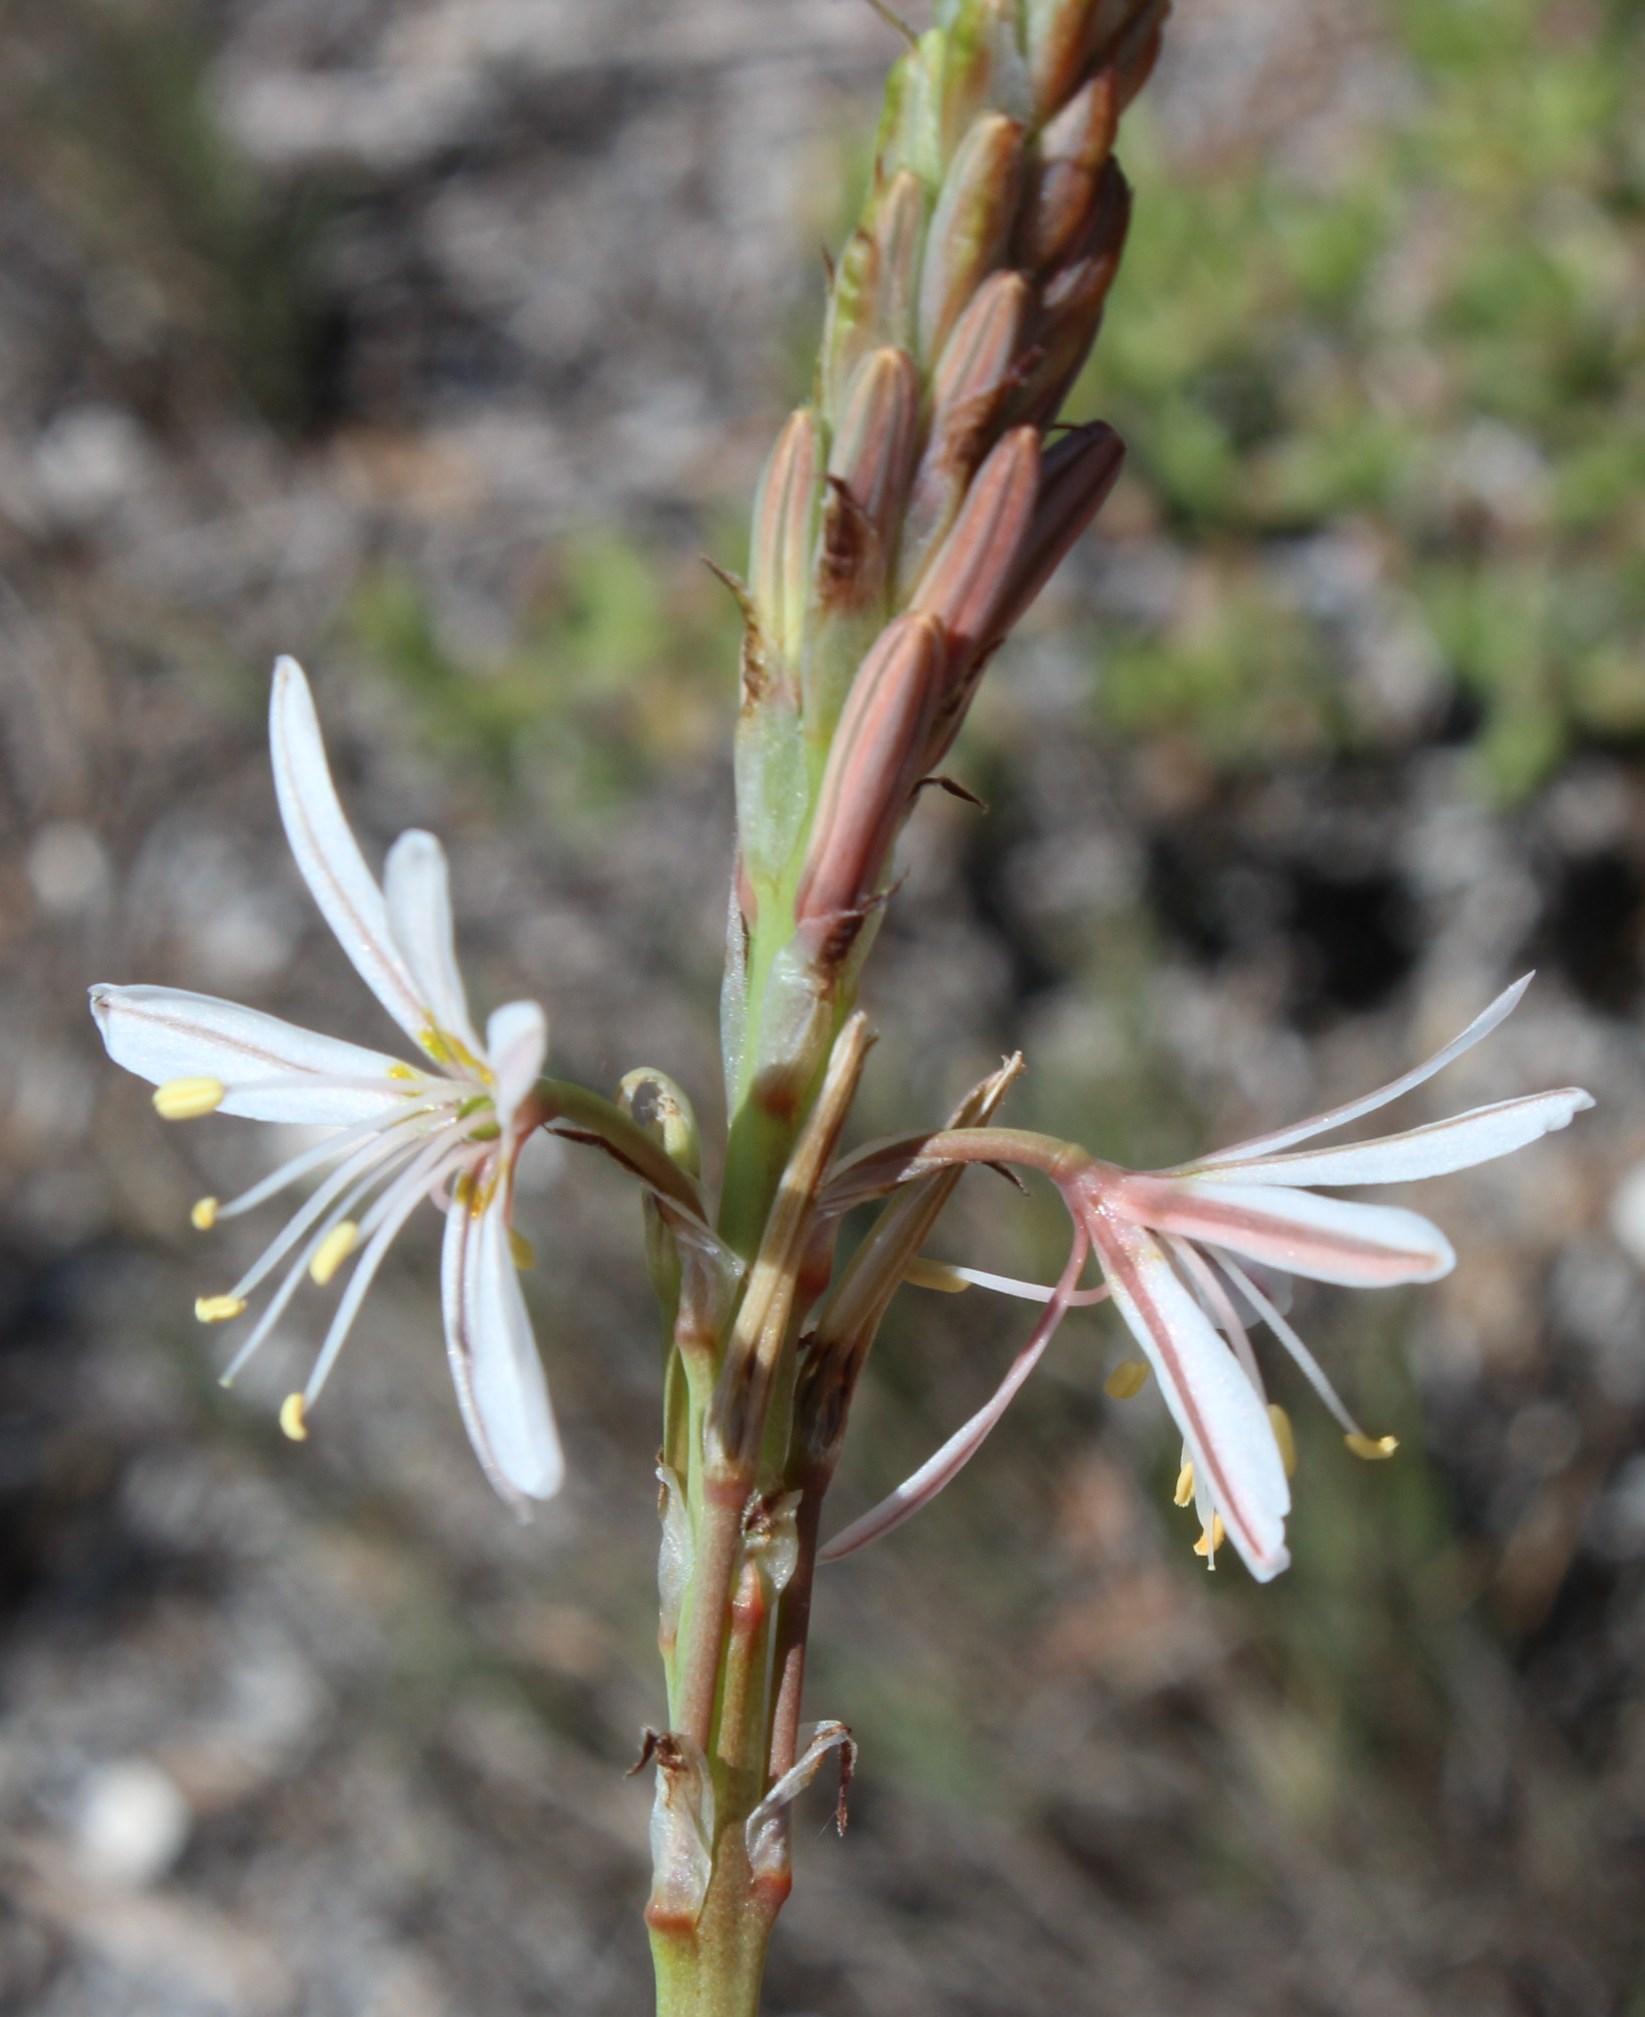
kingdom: Plantae
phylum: Tracheophyta
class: Liliopsida
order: Asparagales
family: Asphodelaceae
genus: Trachyandra
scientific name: Trachyandra falcata
